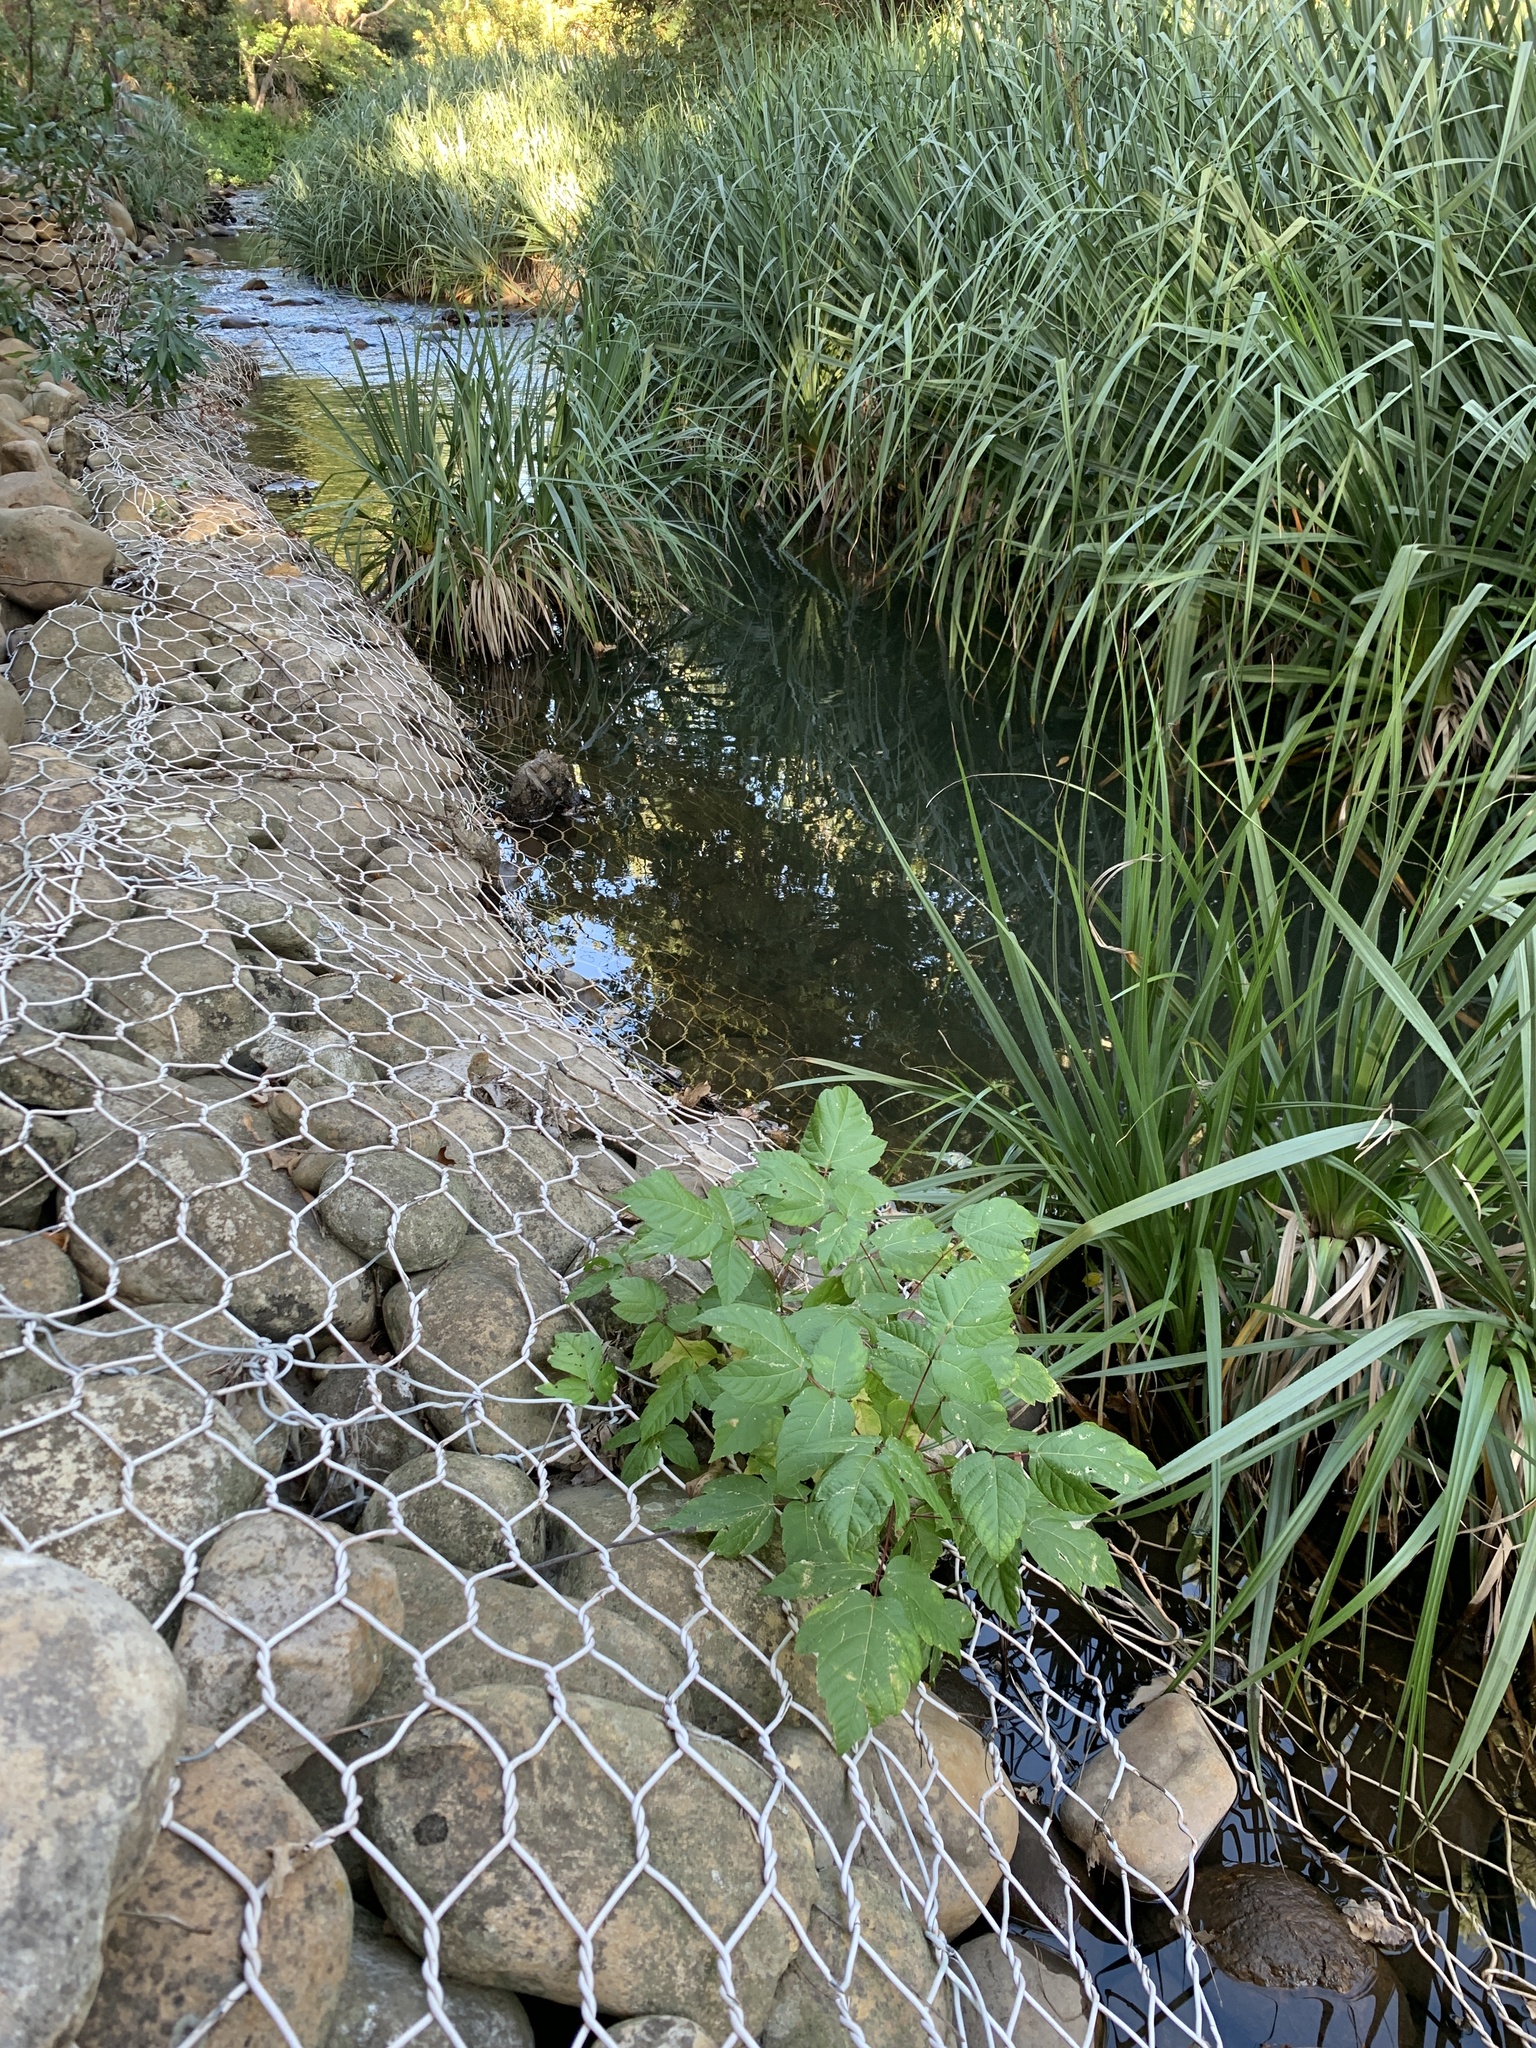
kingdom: Plantae
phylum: Tracheophyta
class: Magnoliopsida
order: Sapindales
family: Sapindaceae
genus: Acer
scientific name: Acer negundo
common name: Ashleaf maple
